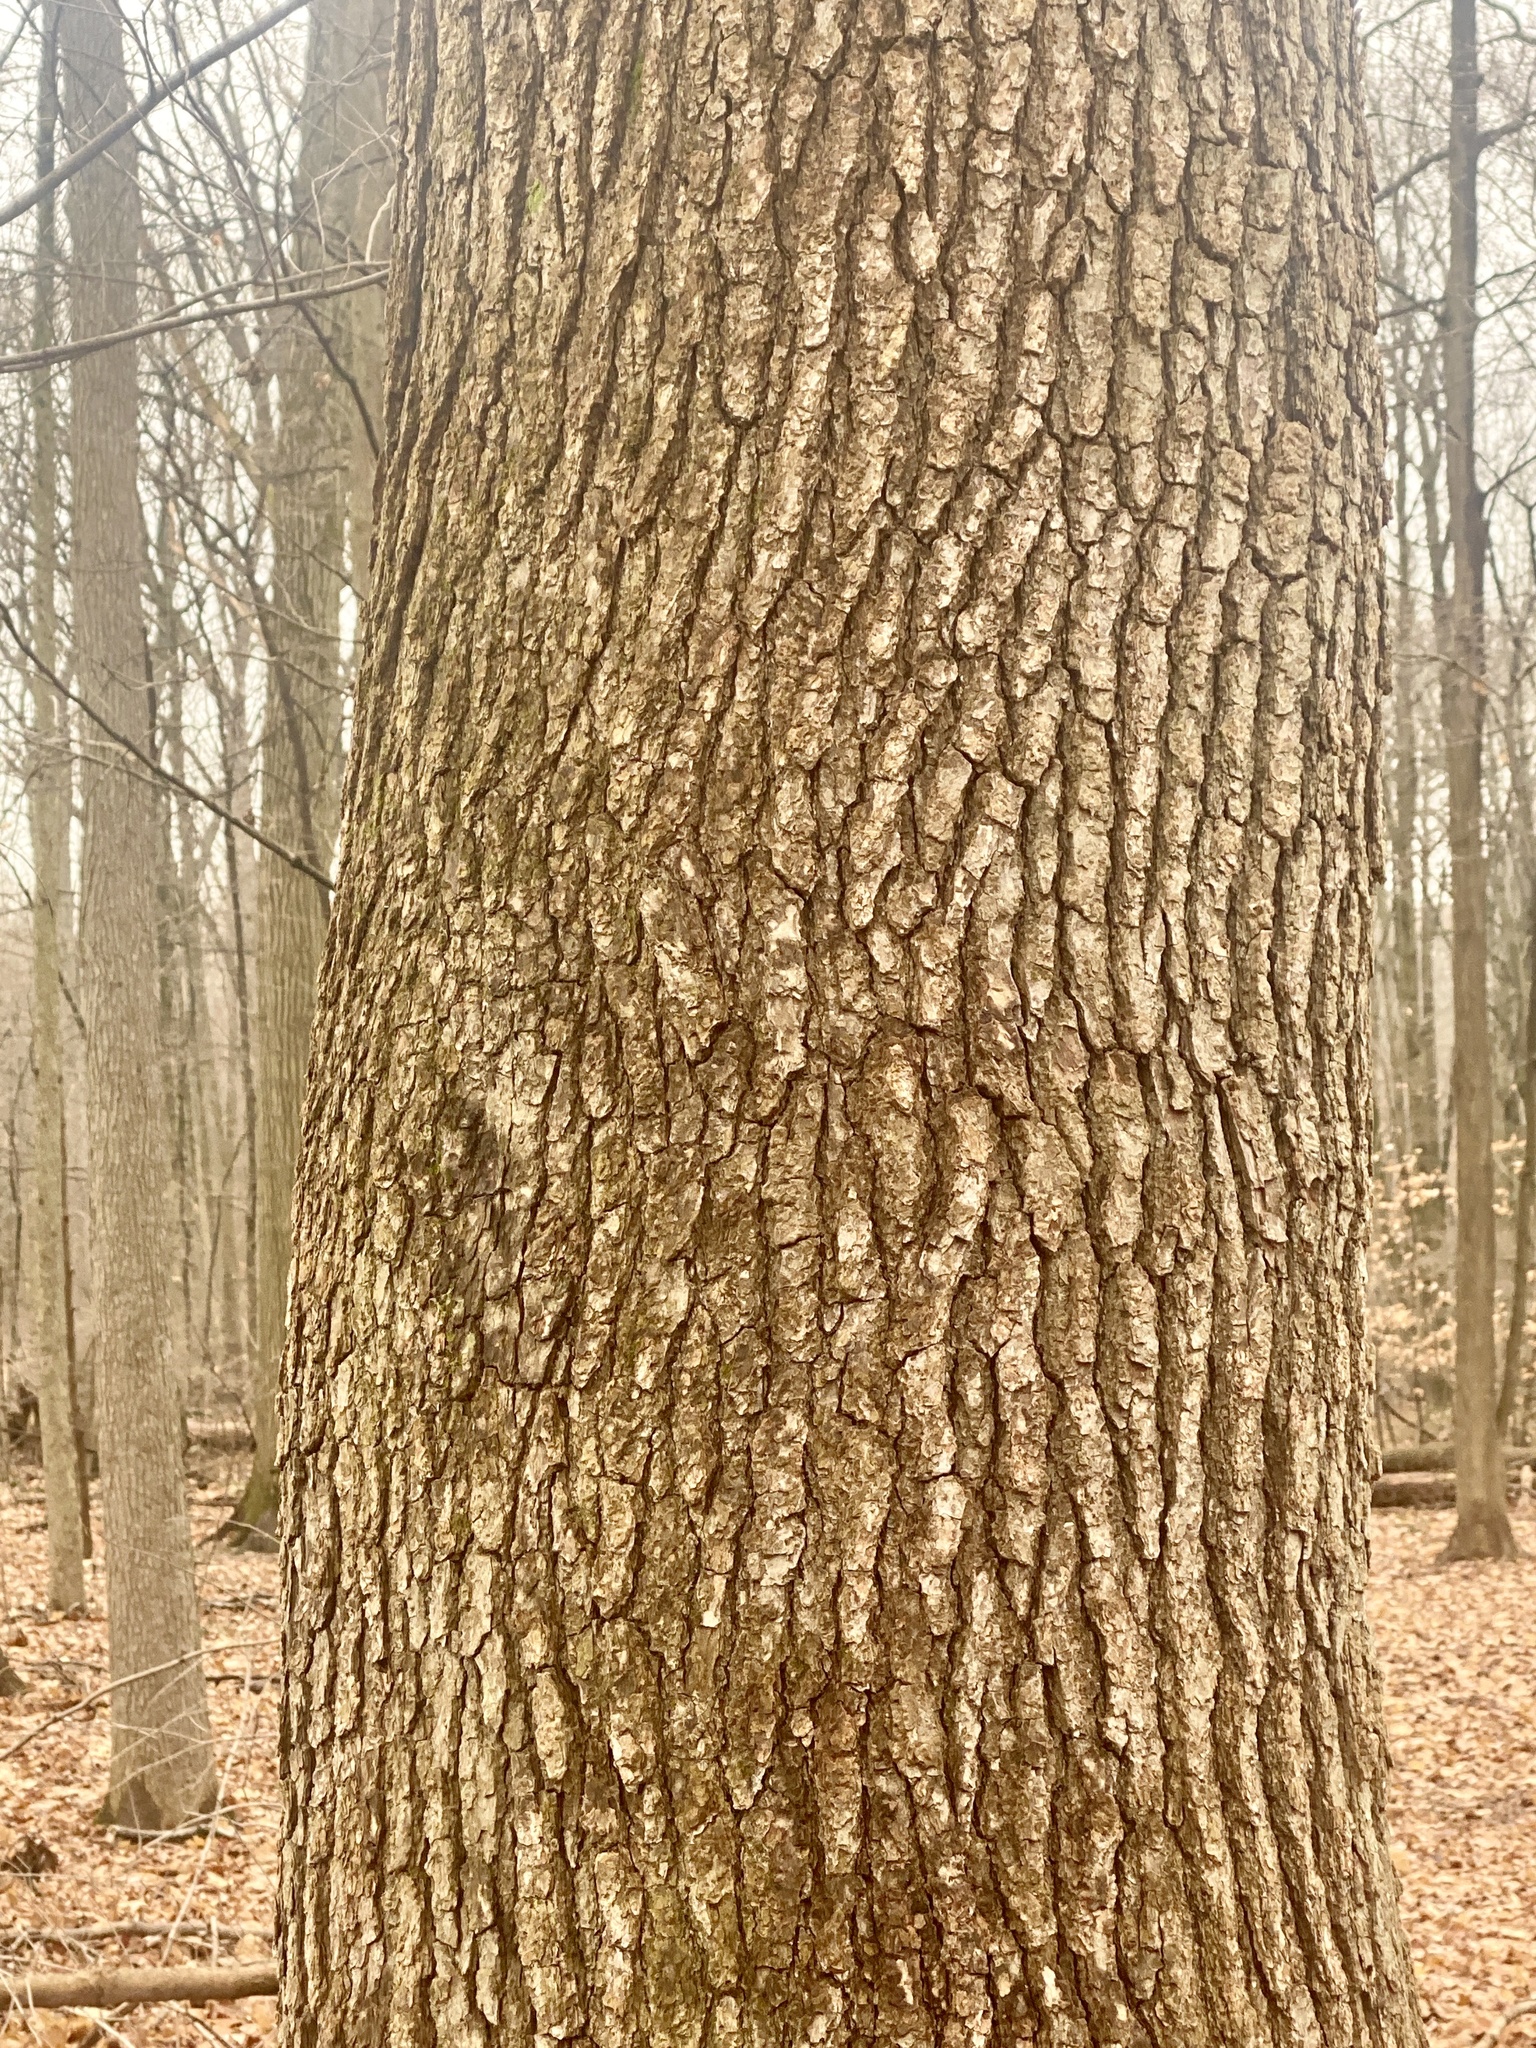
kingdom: Plantae
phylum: Tracheophyta
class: Magnoliopsida
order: Saxifragales
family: Altingiaceae
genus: Liquidambar
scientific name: Liquidambar styraciflua
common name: Sweet gum
